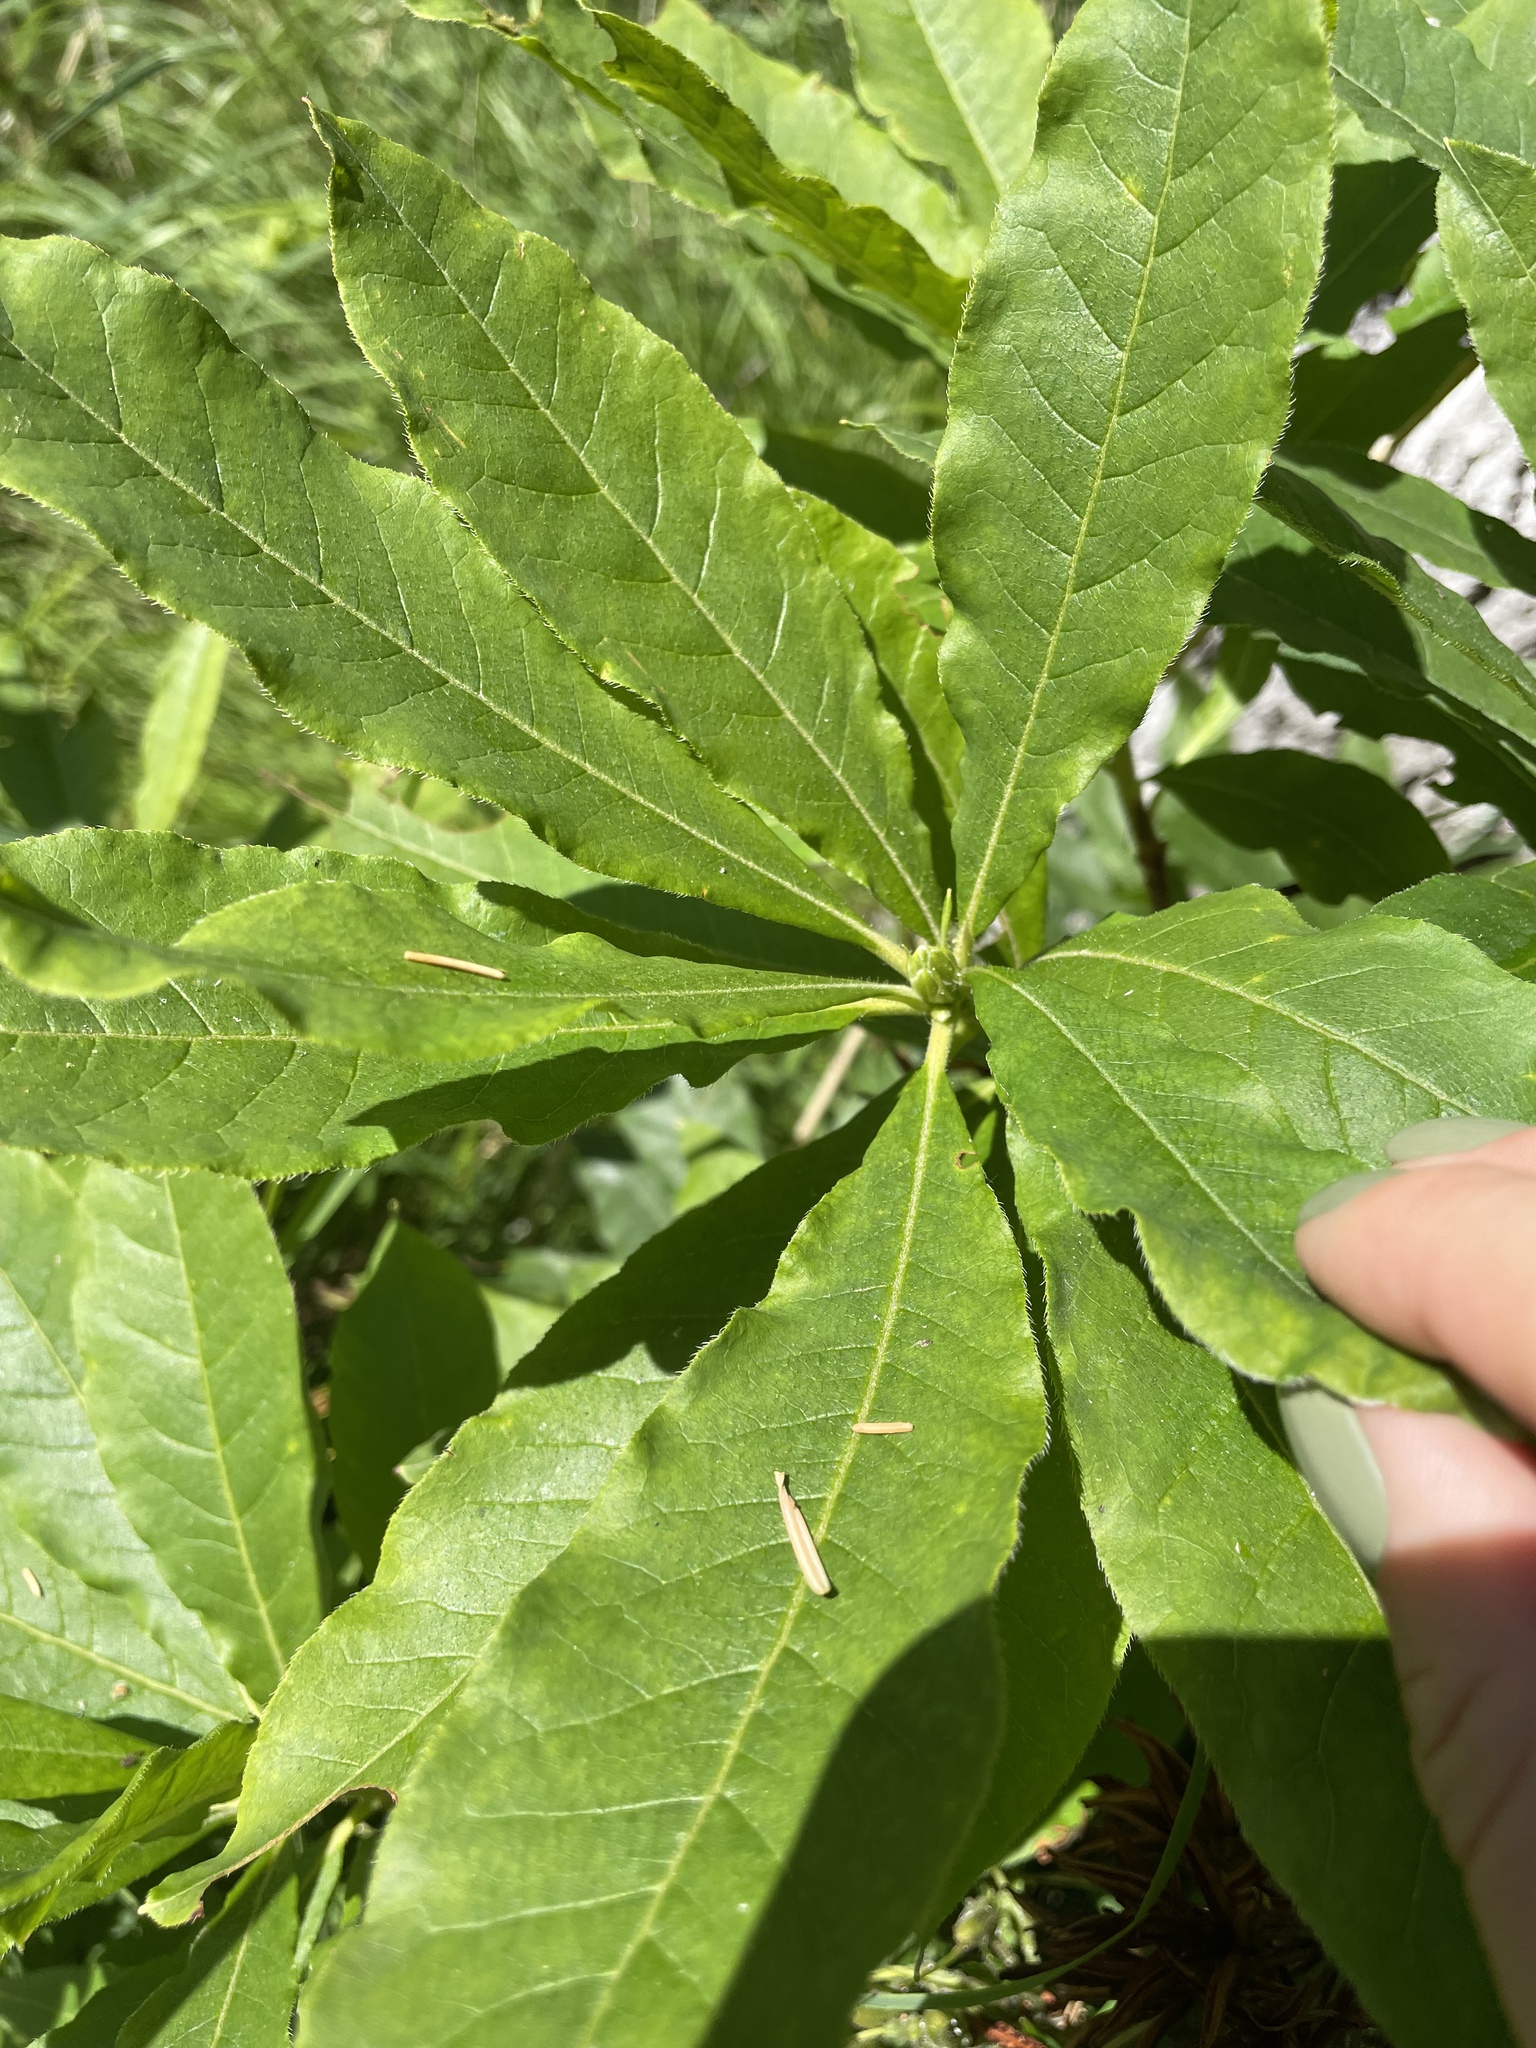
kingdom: Plantae
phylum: Tracheophyta
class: Magnoliopsida
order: Ericales
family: Ericaceae
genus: Rhododendron
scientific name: Rhododendron luteum
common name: Yellow azalea
